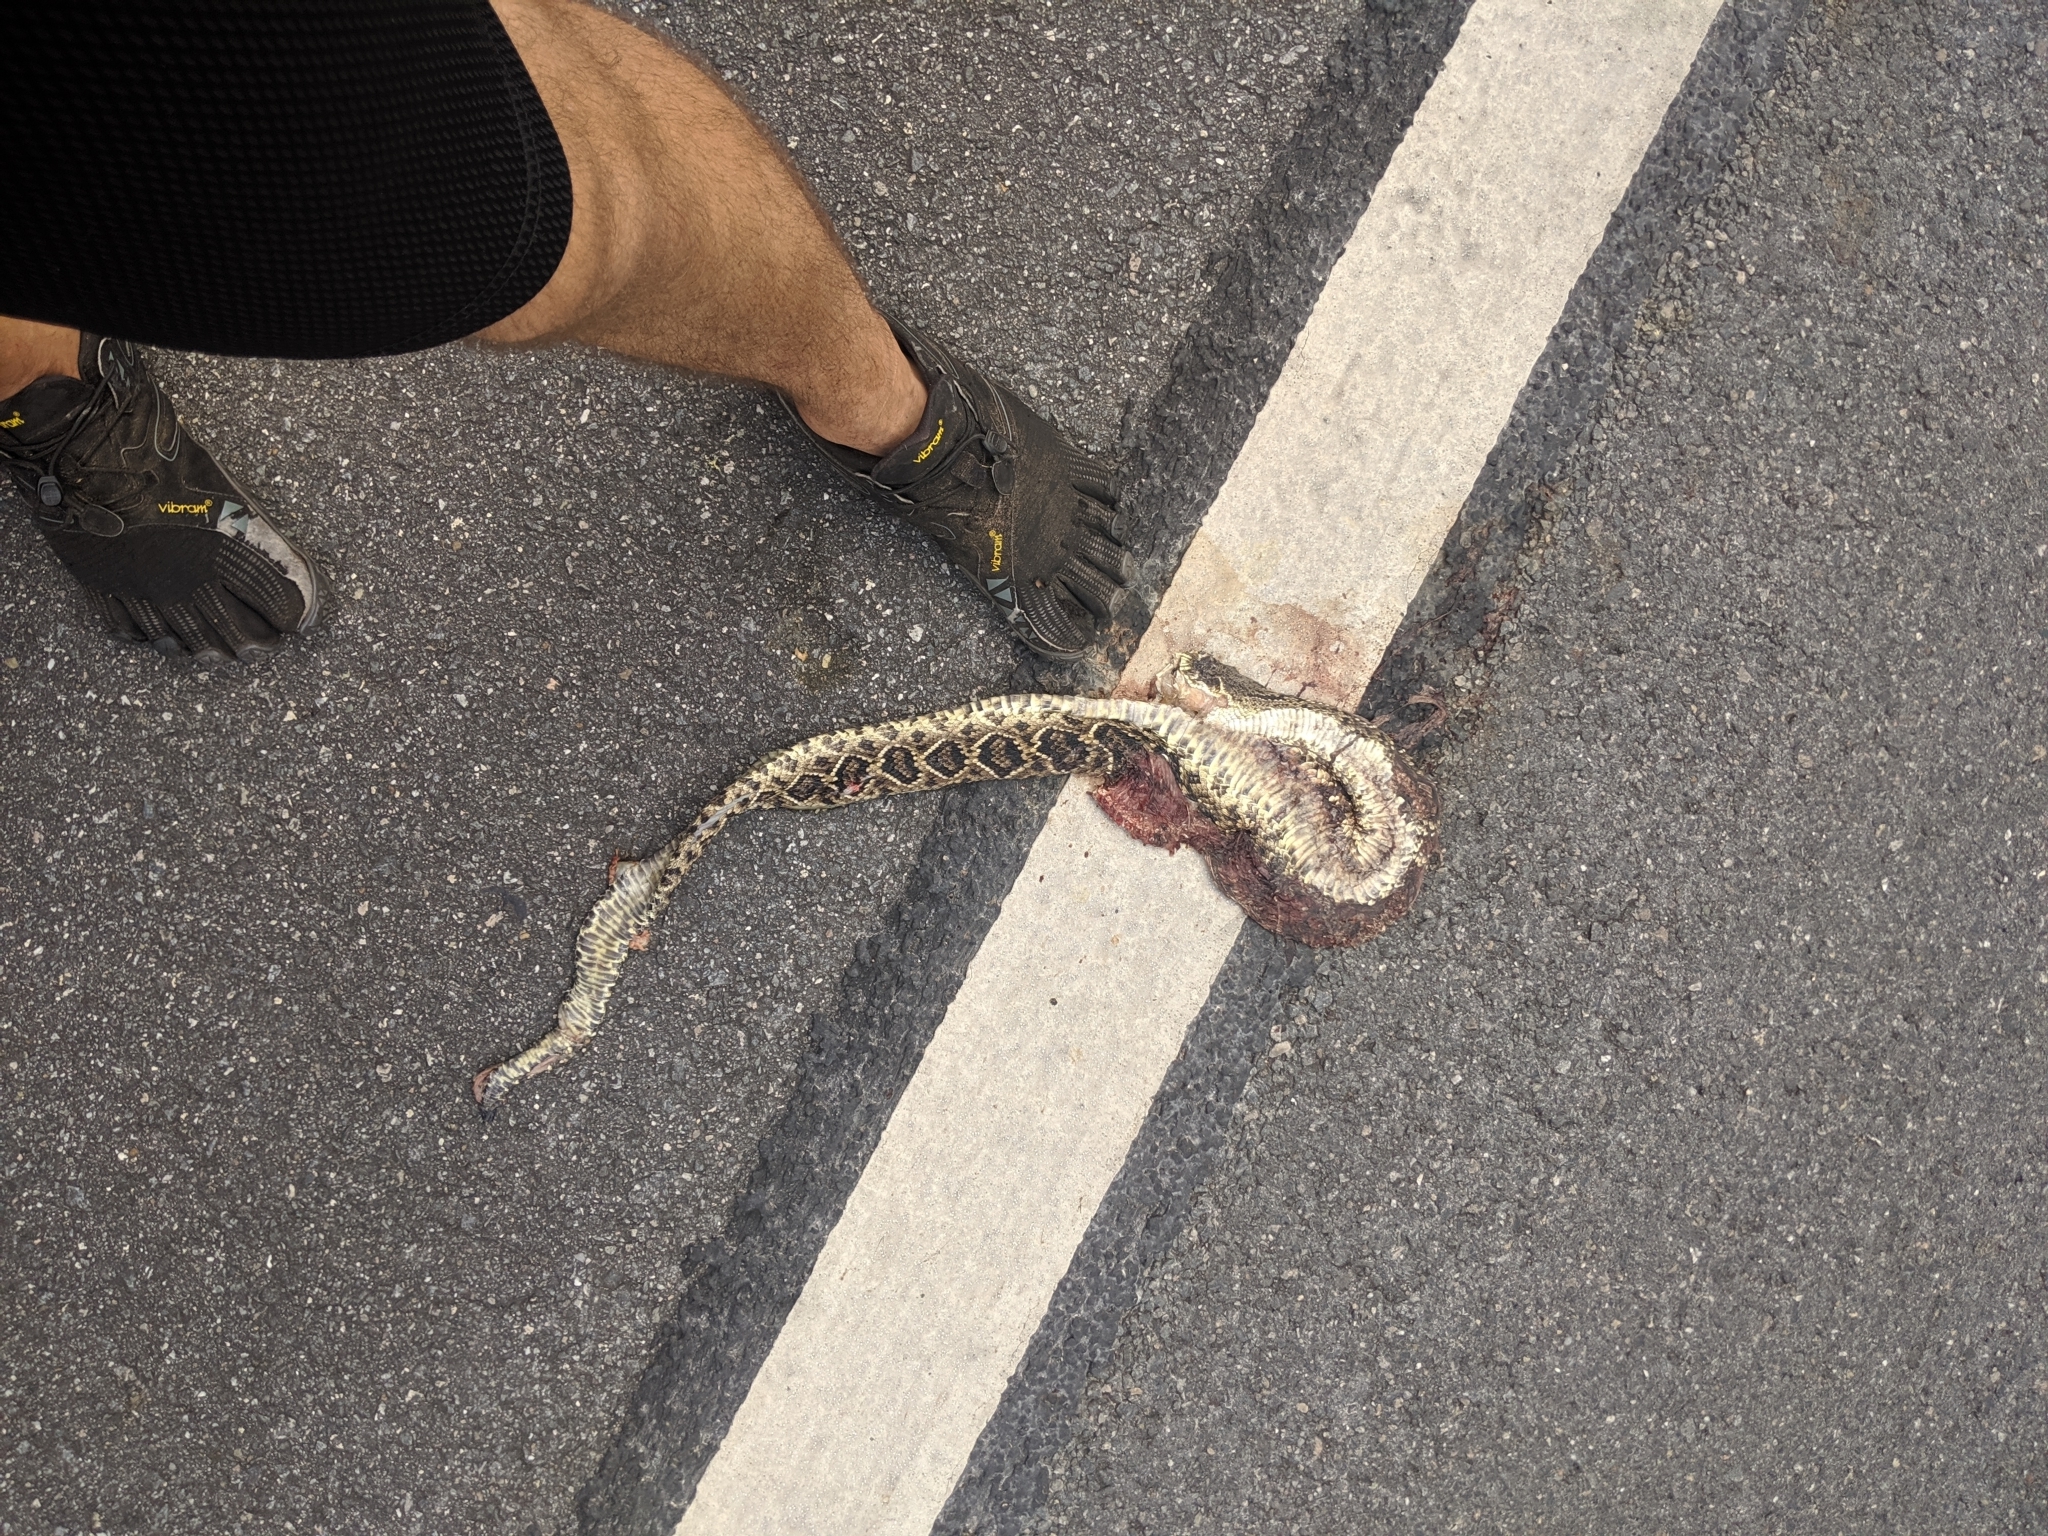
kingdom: Animalia
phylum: Chordata
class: Squamata
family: Viperidae
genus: Crotalus
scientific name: Crotalus adamanteus
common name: Eastern diamondback rattlesnake
